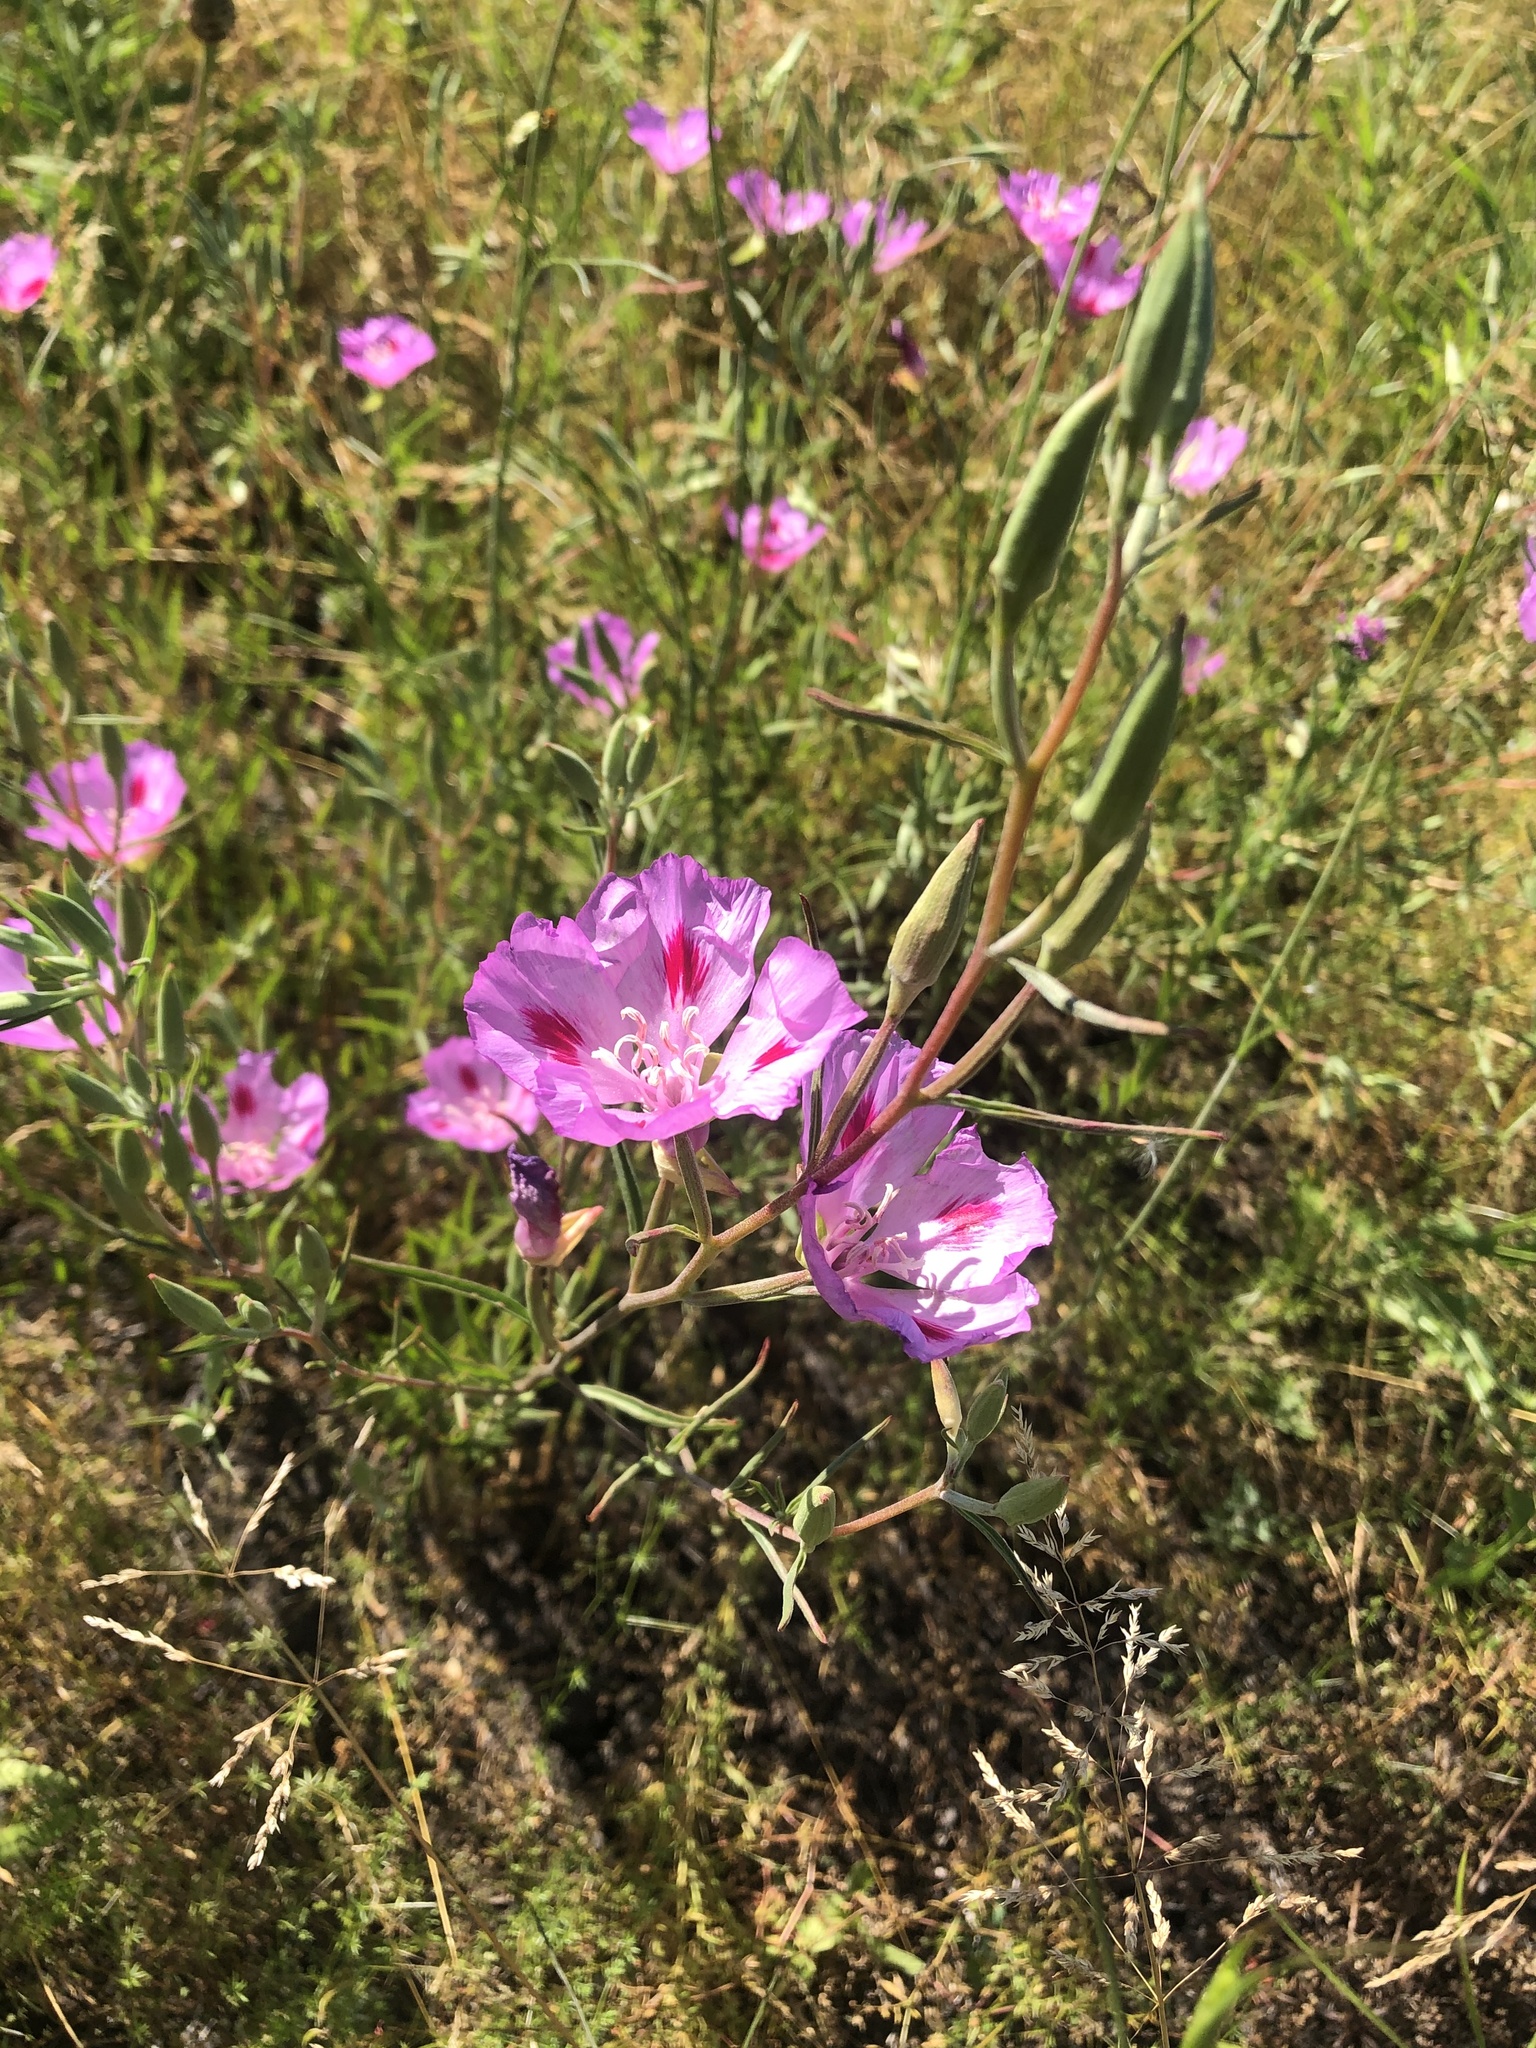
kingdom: Plantae
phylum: Tracheophyta
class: Magnoliopsida
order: Myrtales
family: Onagraceae
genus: Clarkia
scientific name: Clarkia amoena
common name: Godetia
